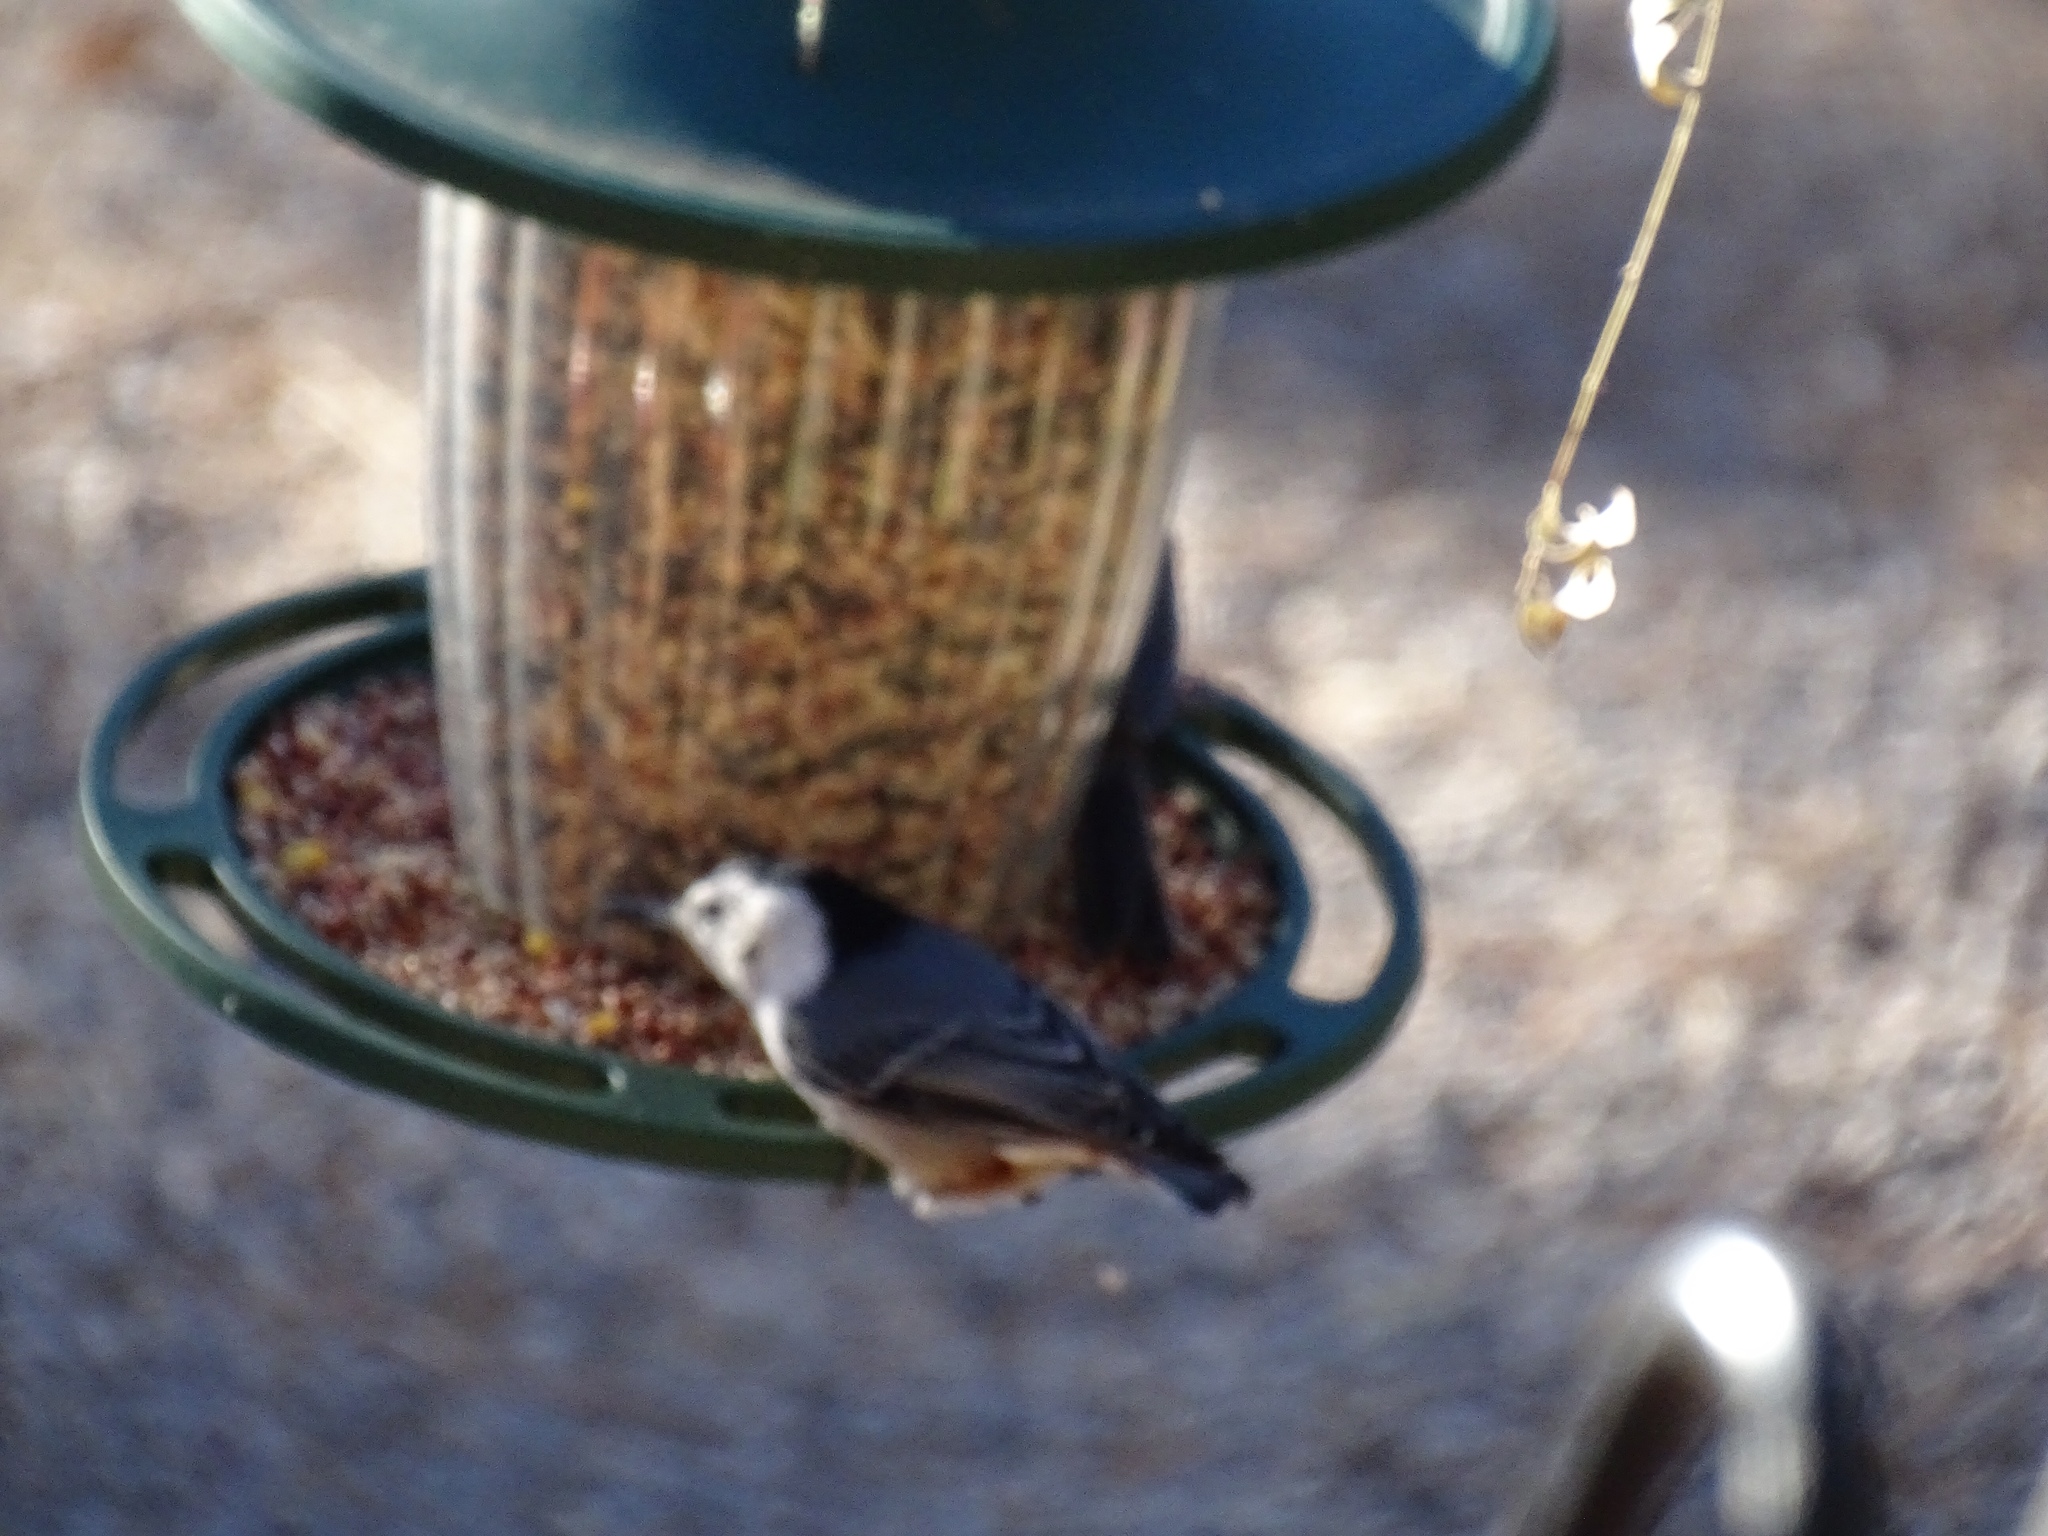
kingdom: Animalia
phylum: Chordata
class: Aves
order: Passeriformes
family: Sittidae
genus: Sitta
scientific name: Sitta carolinensis
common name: White-breasted nuthatch
